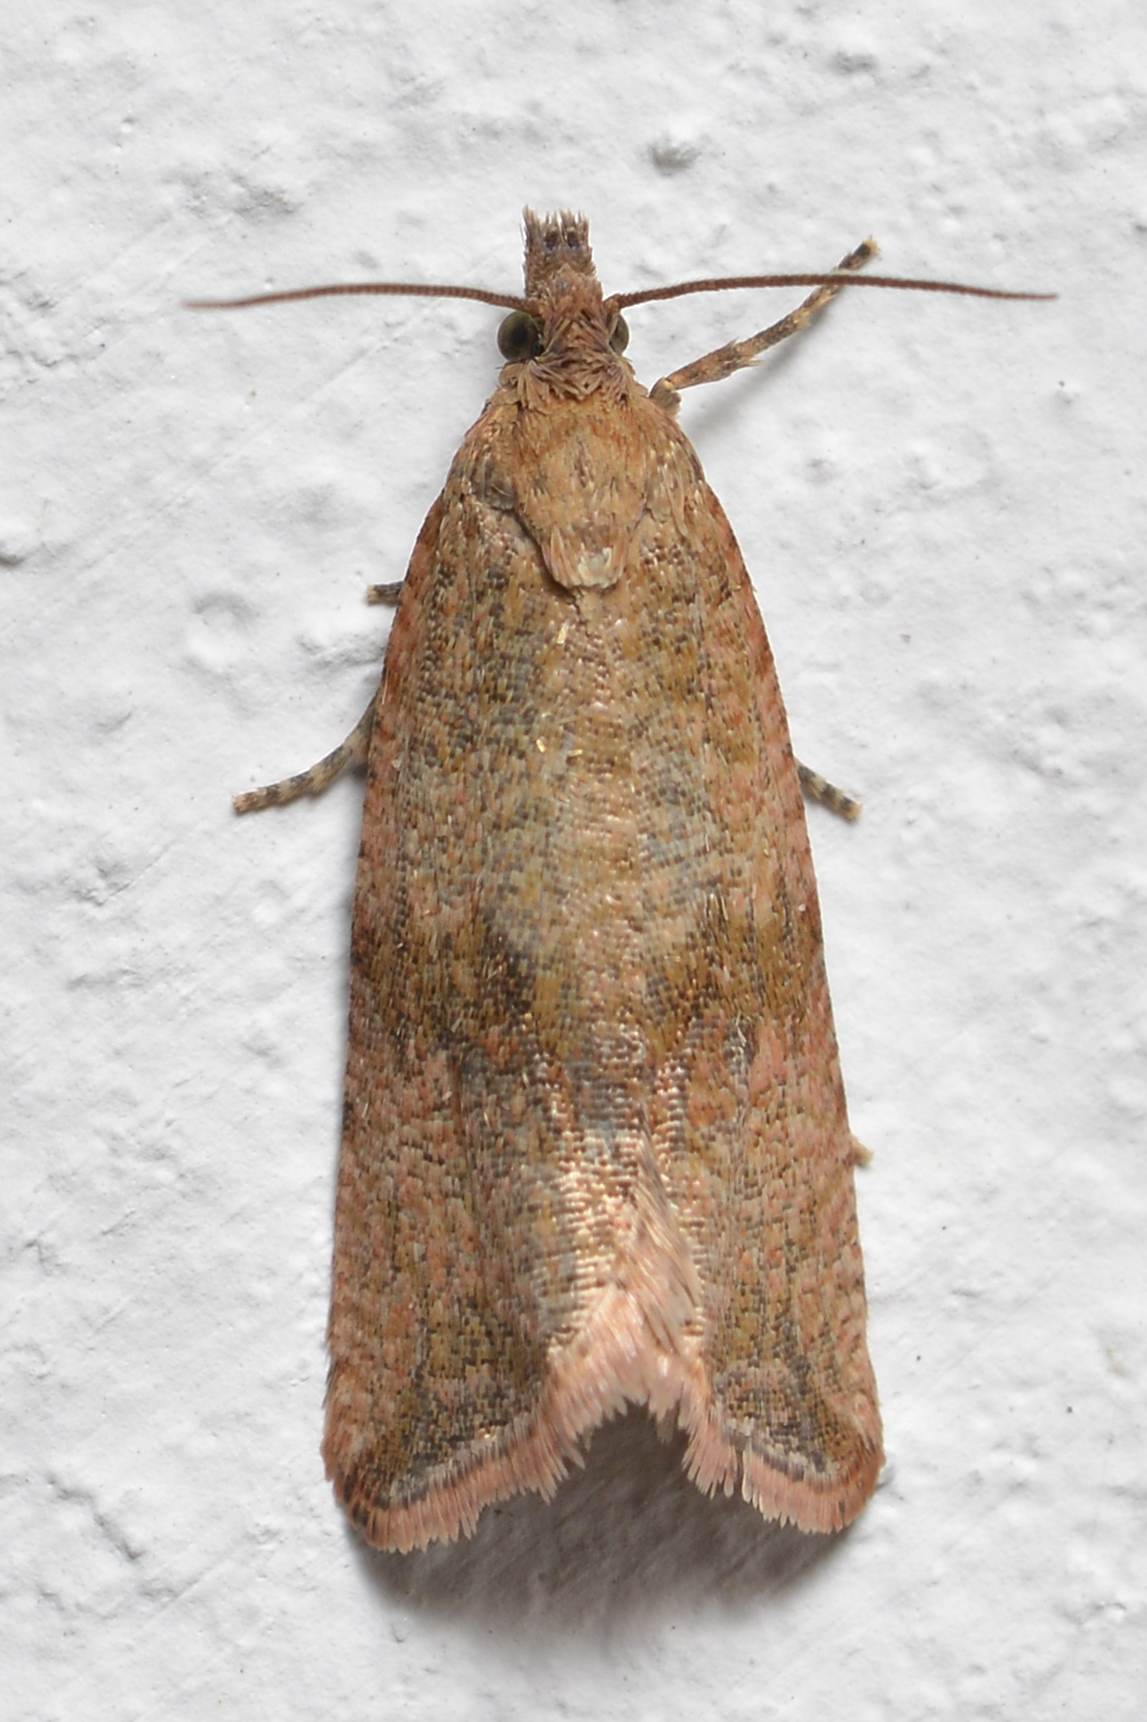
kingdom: Animalia
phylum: Arthropoda
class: Insecta
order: Lepidoptera
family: Tortricidae
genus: Celypha
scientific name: Celypha striana
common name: Barred marble
